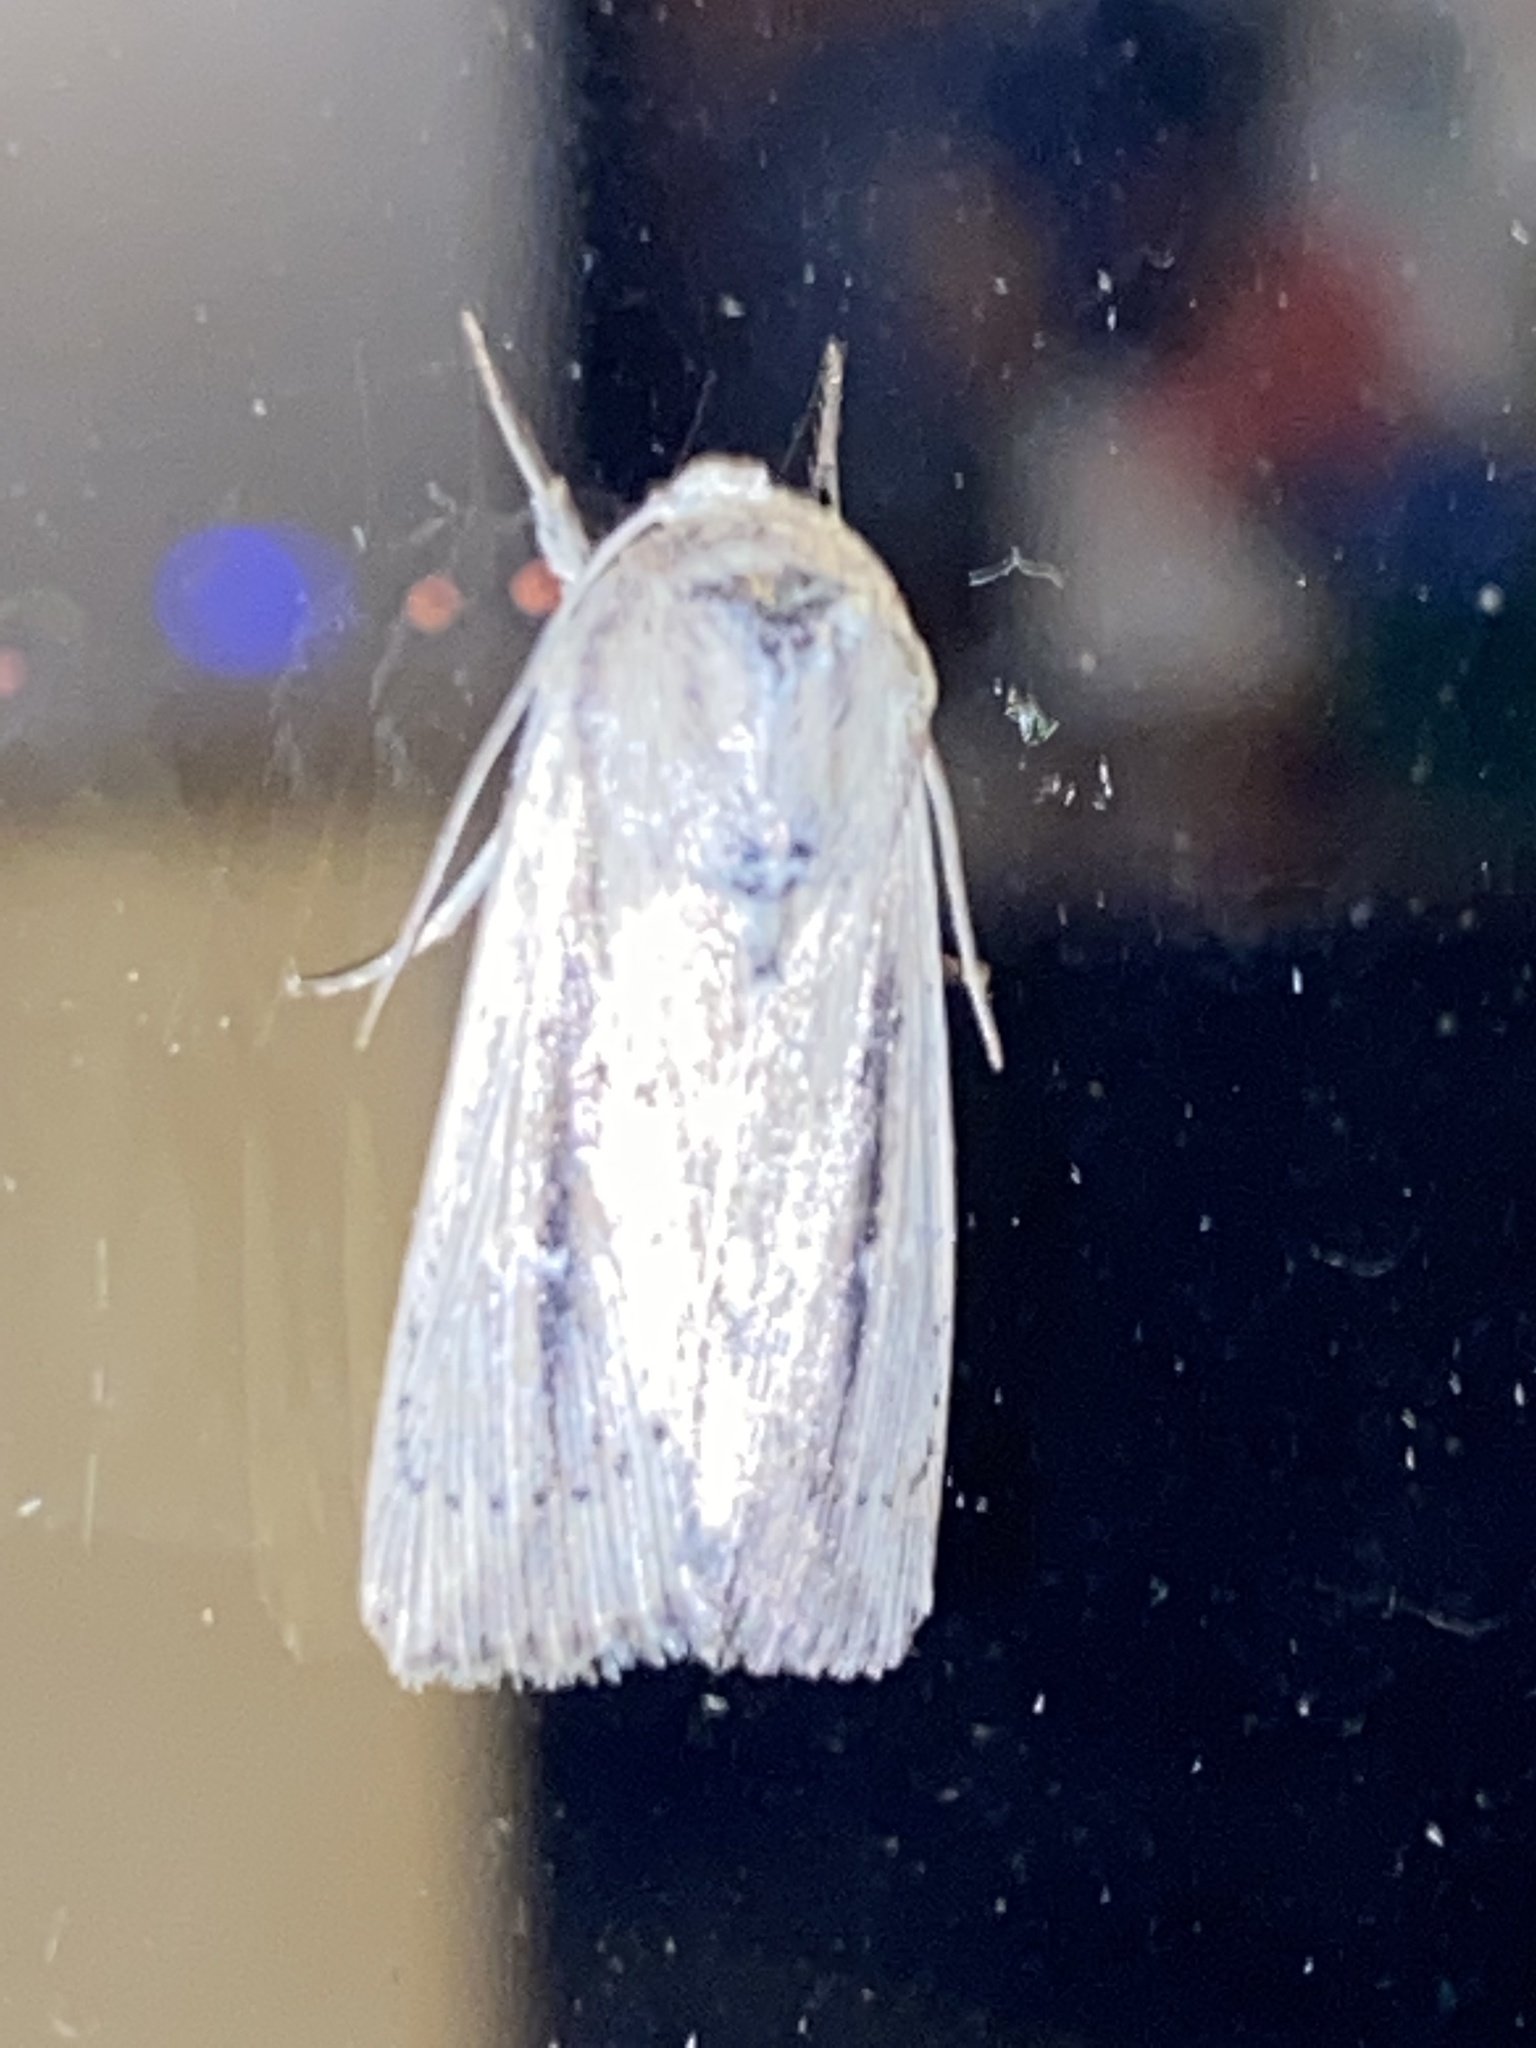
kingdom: Animalia
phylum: Arthropoda
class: Insecta
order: Lepidoptera
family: Noctuidae
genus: Leucania
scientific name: Leucania
